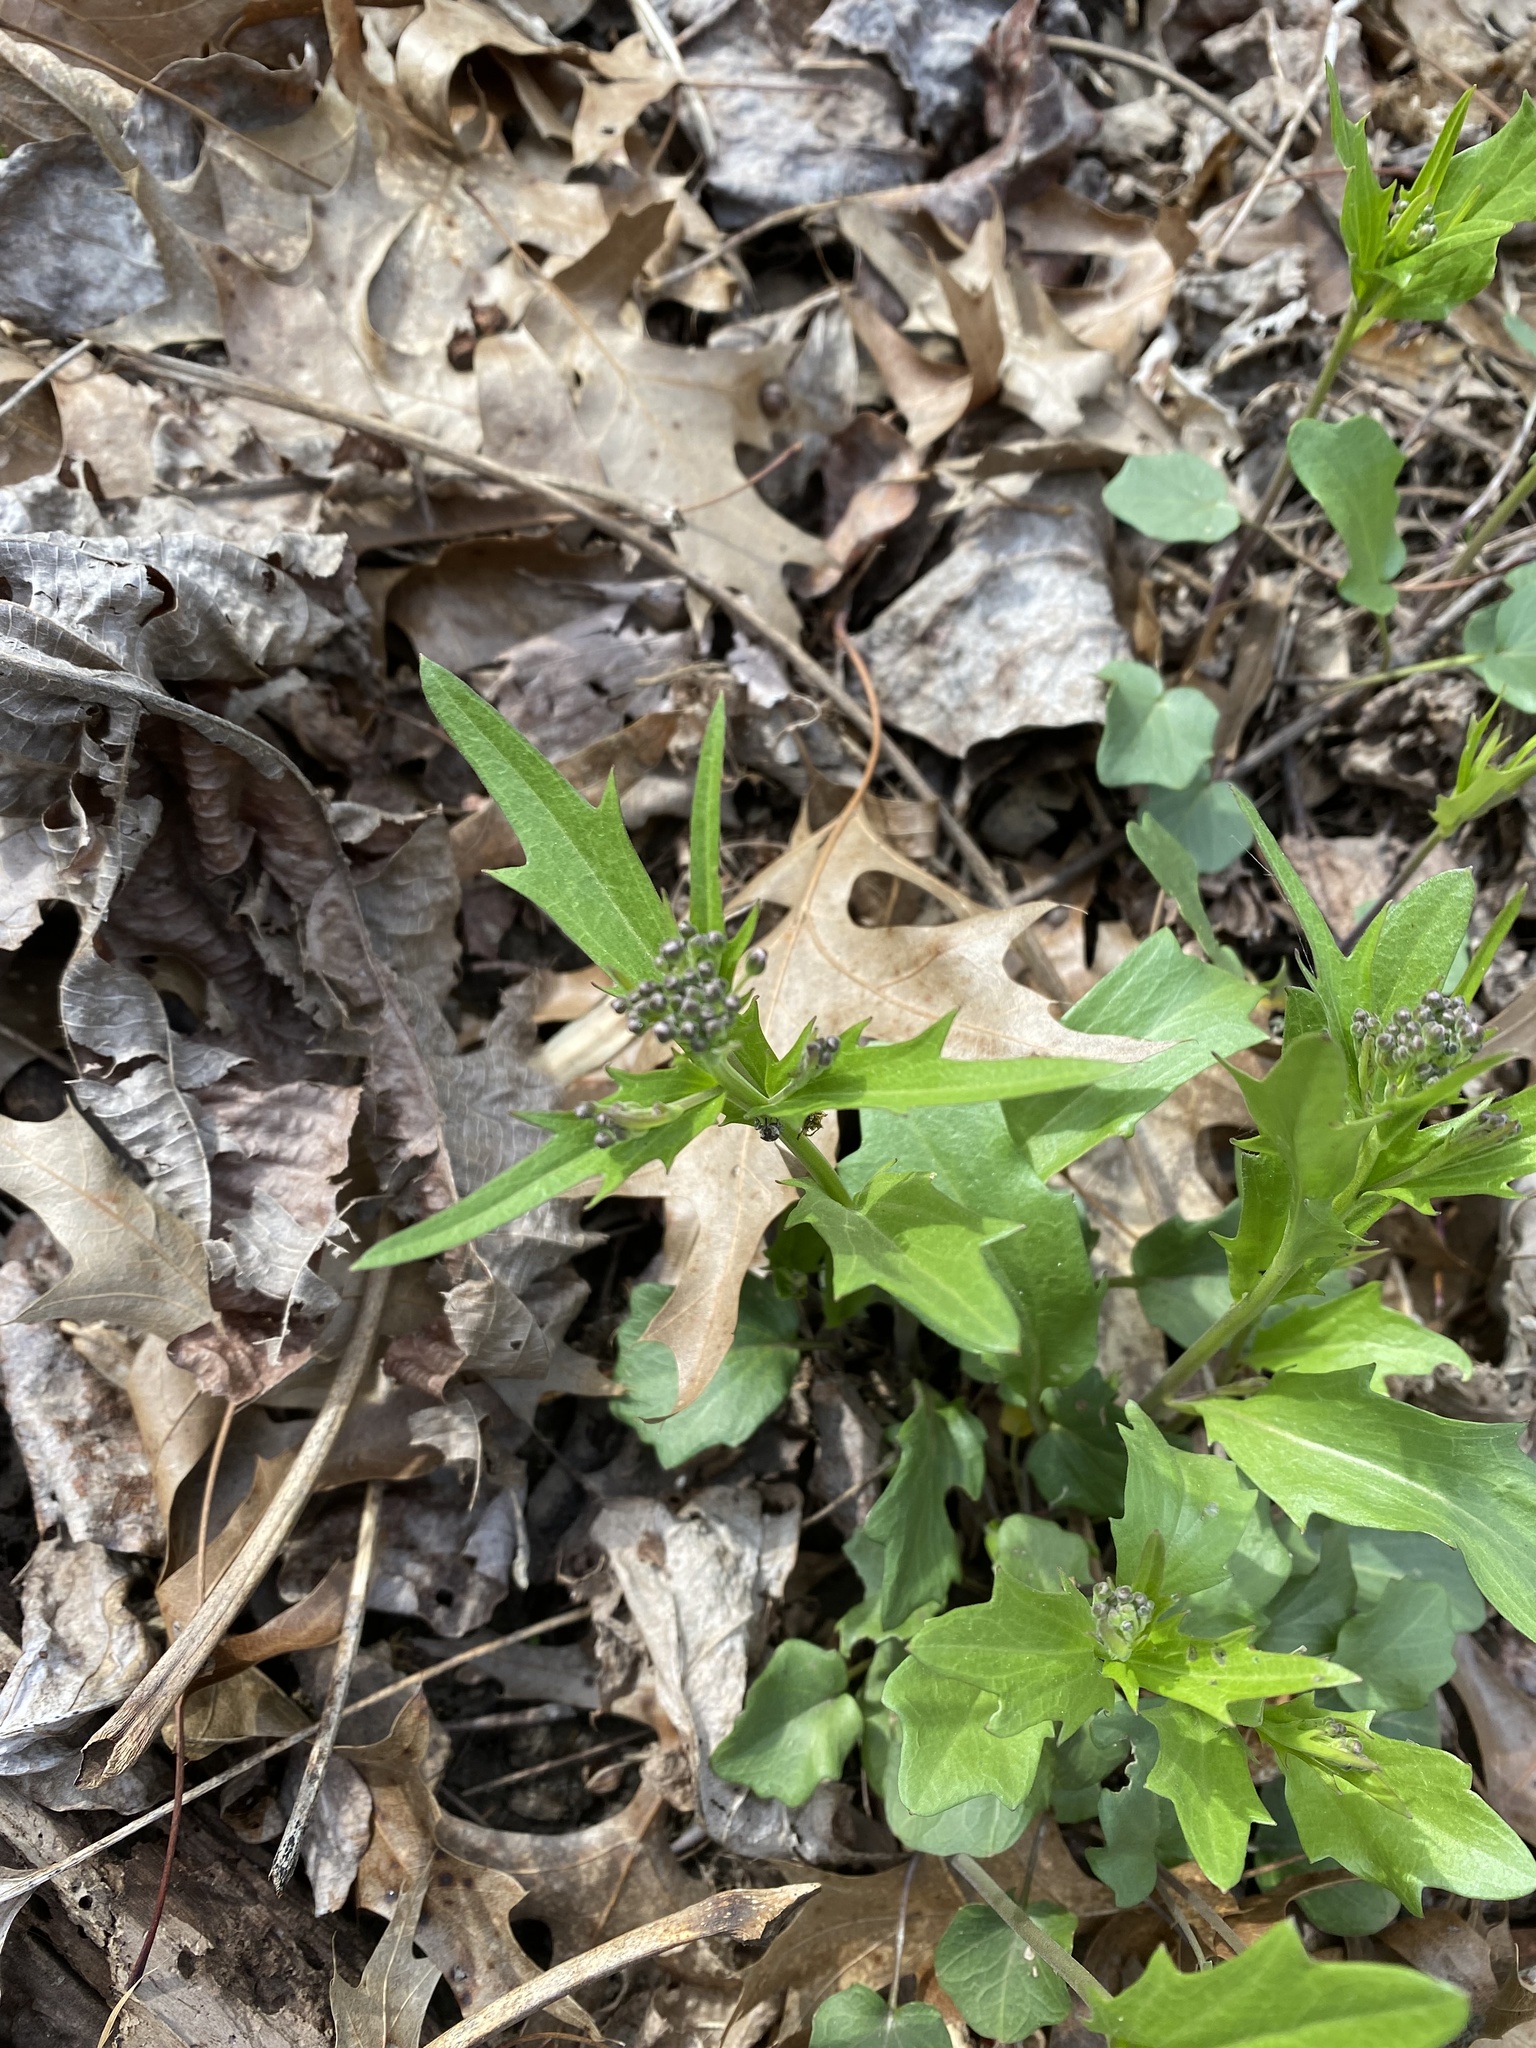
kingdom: Plantae
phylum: Tracheophyta
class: Magnoliopsida
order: Brassicales
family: Brassicaceae
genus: Cardamine
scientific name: Cardamine bulbosa
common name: Spring cress
